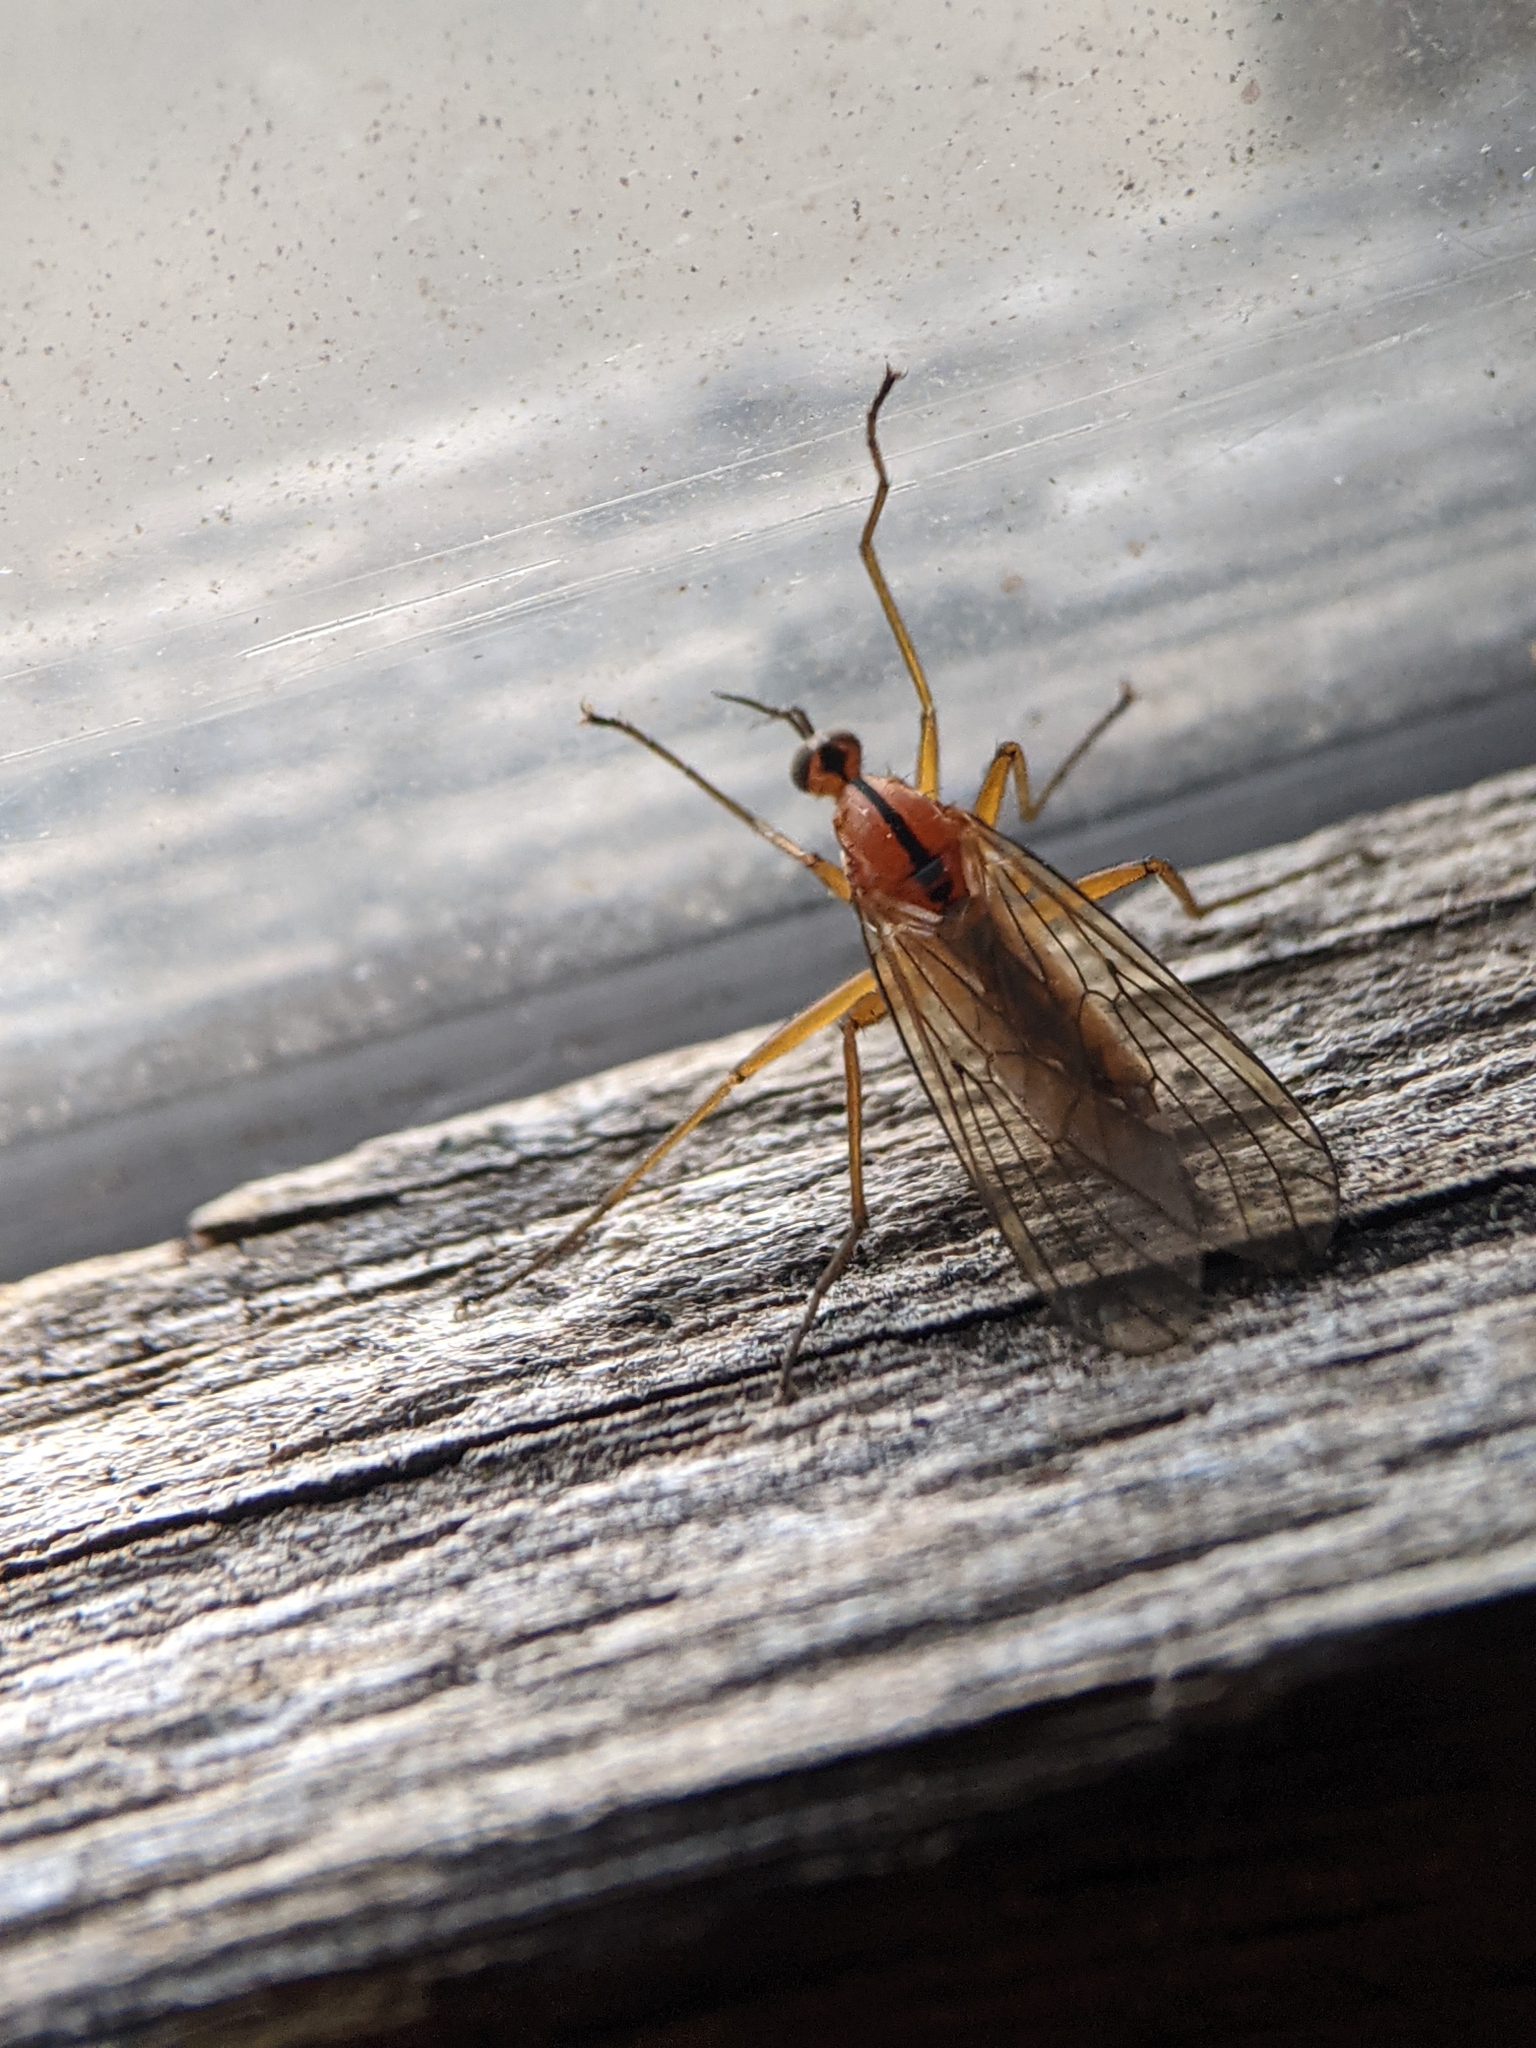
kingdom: Animalia
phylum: Arthropoda
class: Insecta
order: Diptera
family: Empididae
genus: Empis
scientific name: Empis stercorea
